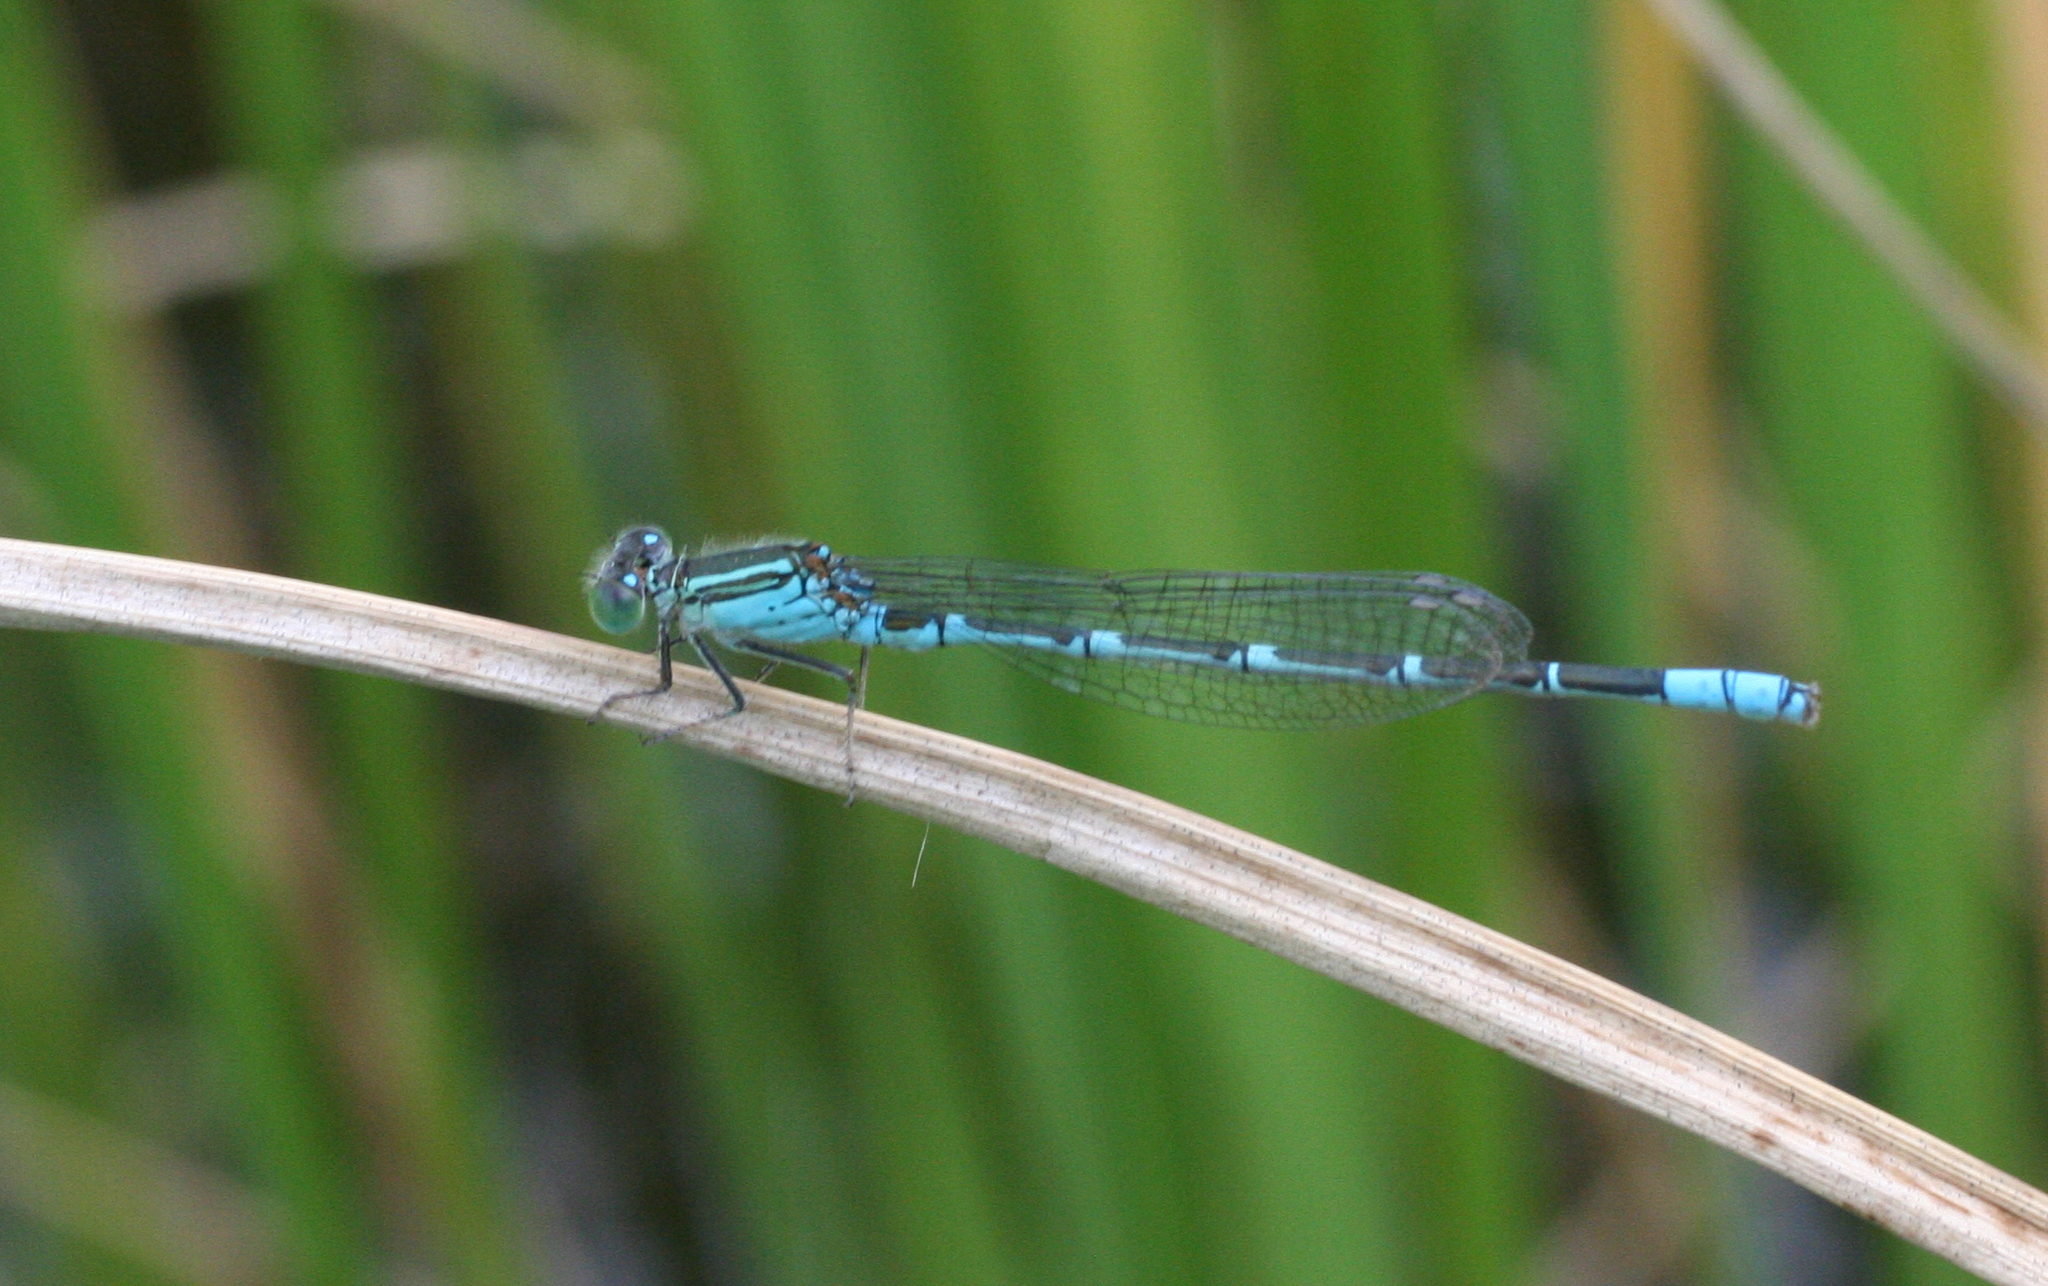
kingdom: Animalia
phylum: Arthropoda
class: Insecta
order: Odonata
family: Coenagrionidae
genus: Paracercion
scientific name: Paracercion hieroglyphicum
